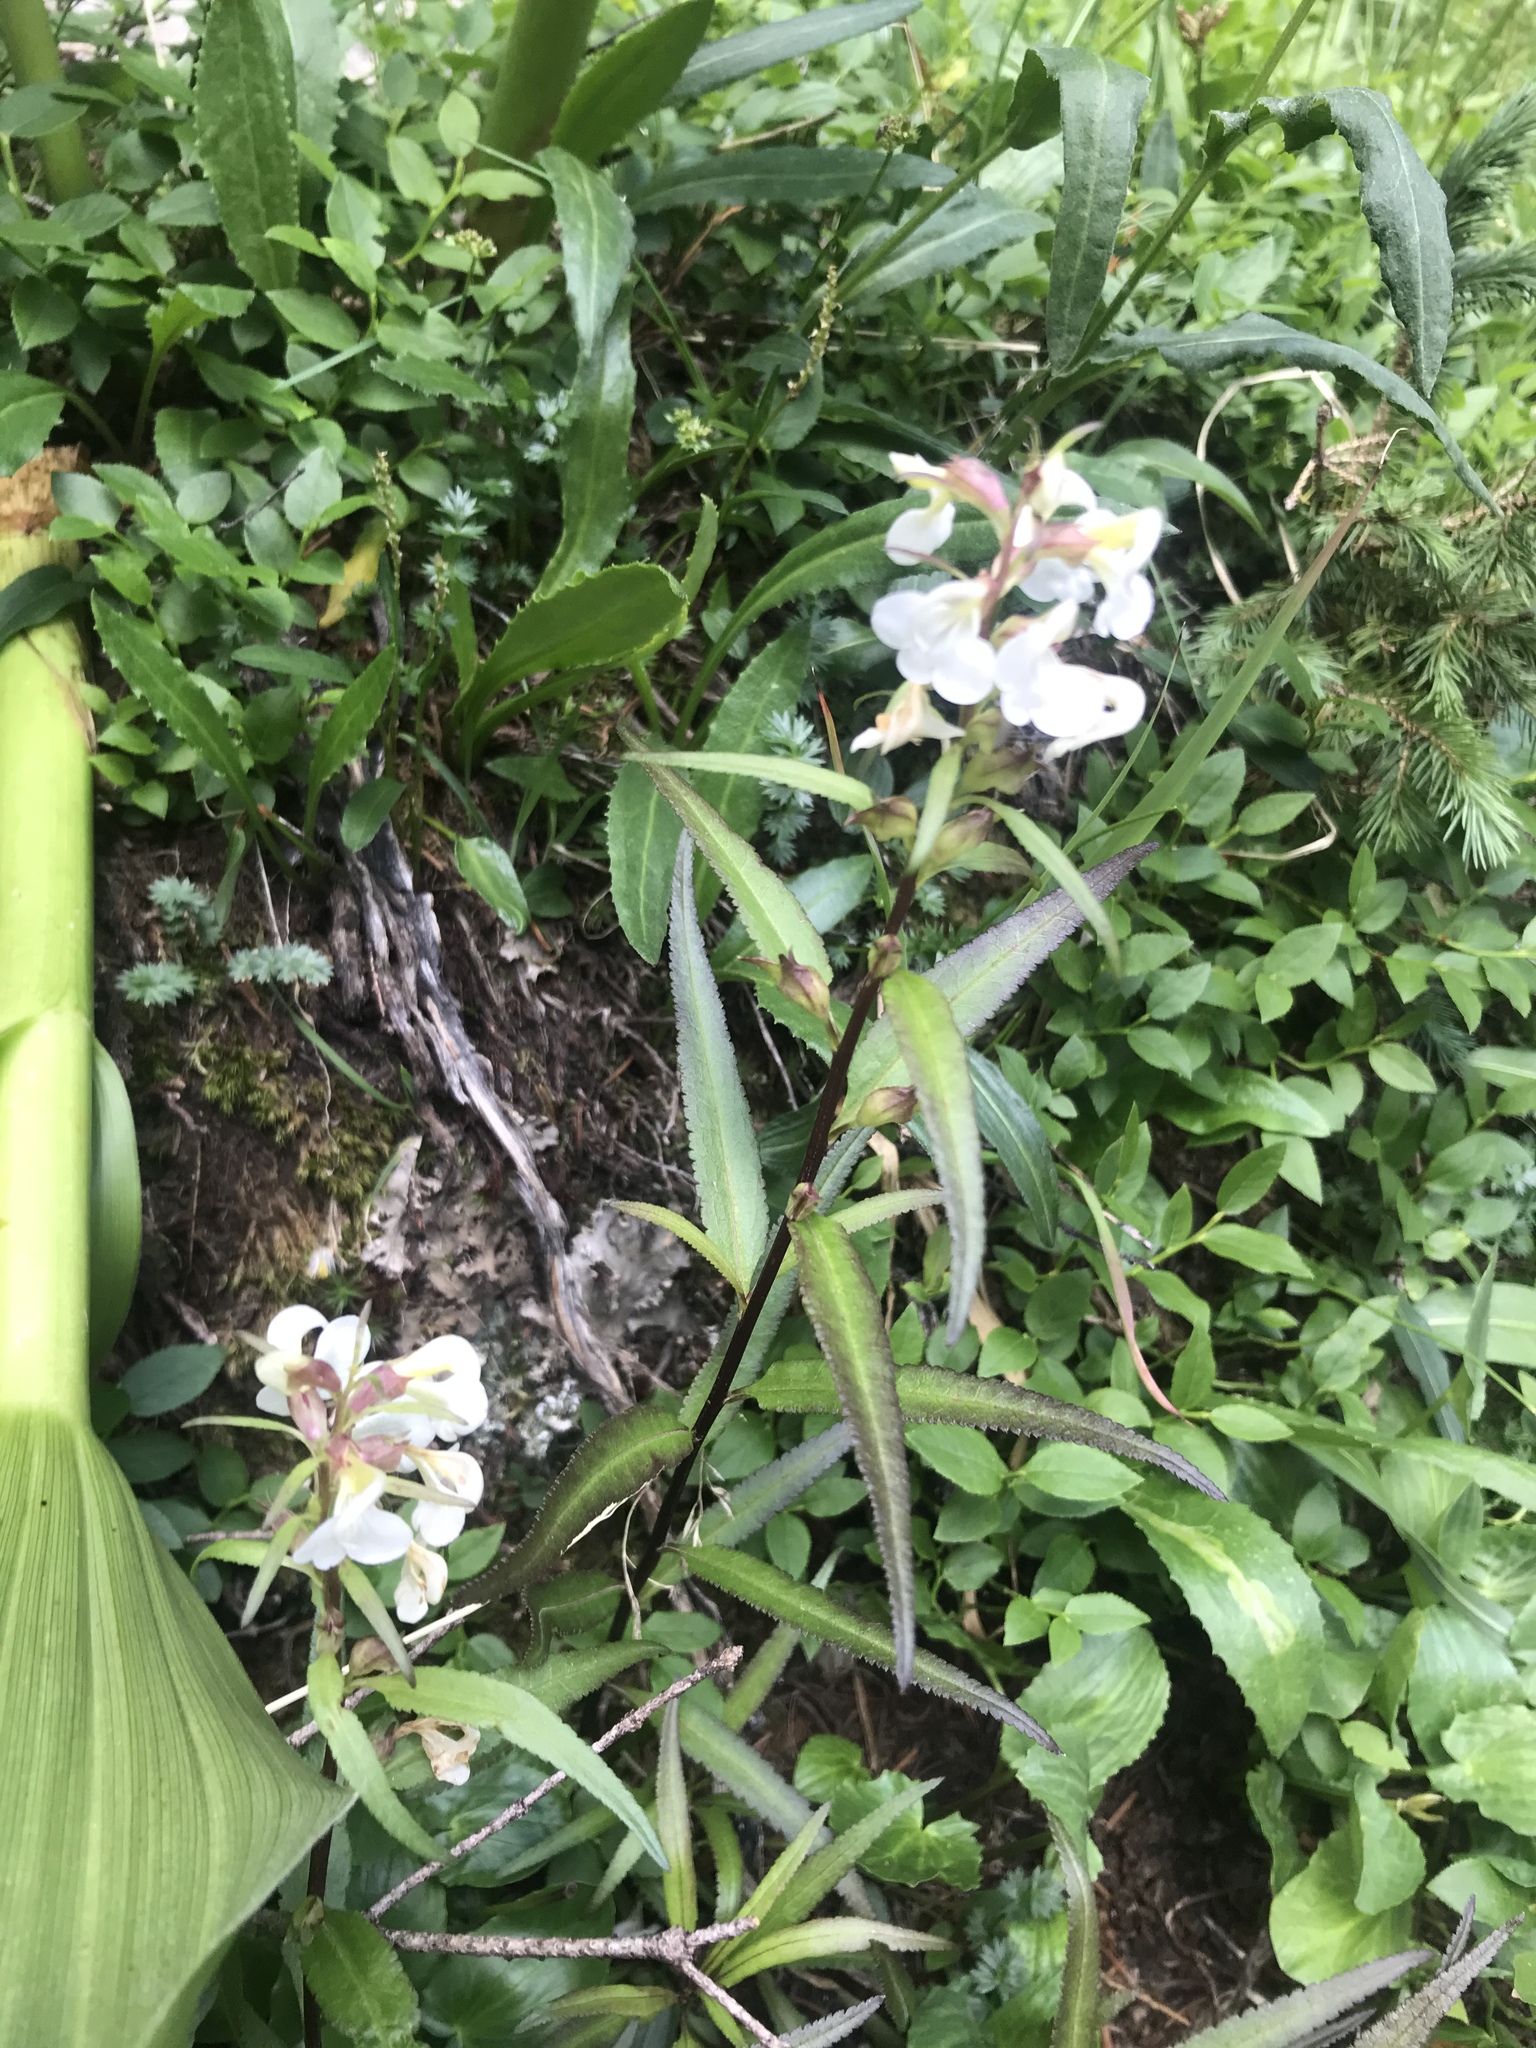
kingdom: Plantae
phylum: Tracheophyta
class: Magnoliopsida
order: Lamiales
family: Orobanchaceae
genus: Pedicularis
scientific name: Pedicularis racemosa
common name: Leafy lousewort
